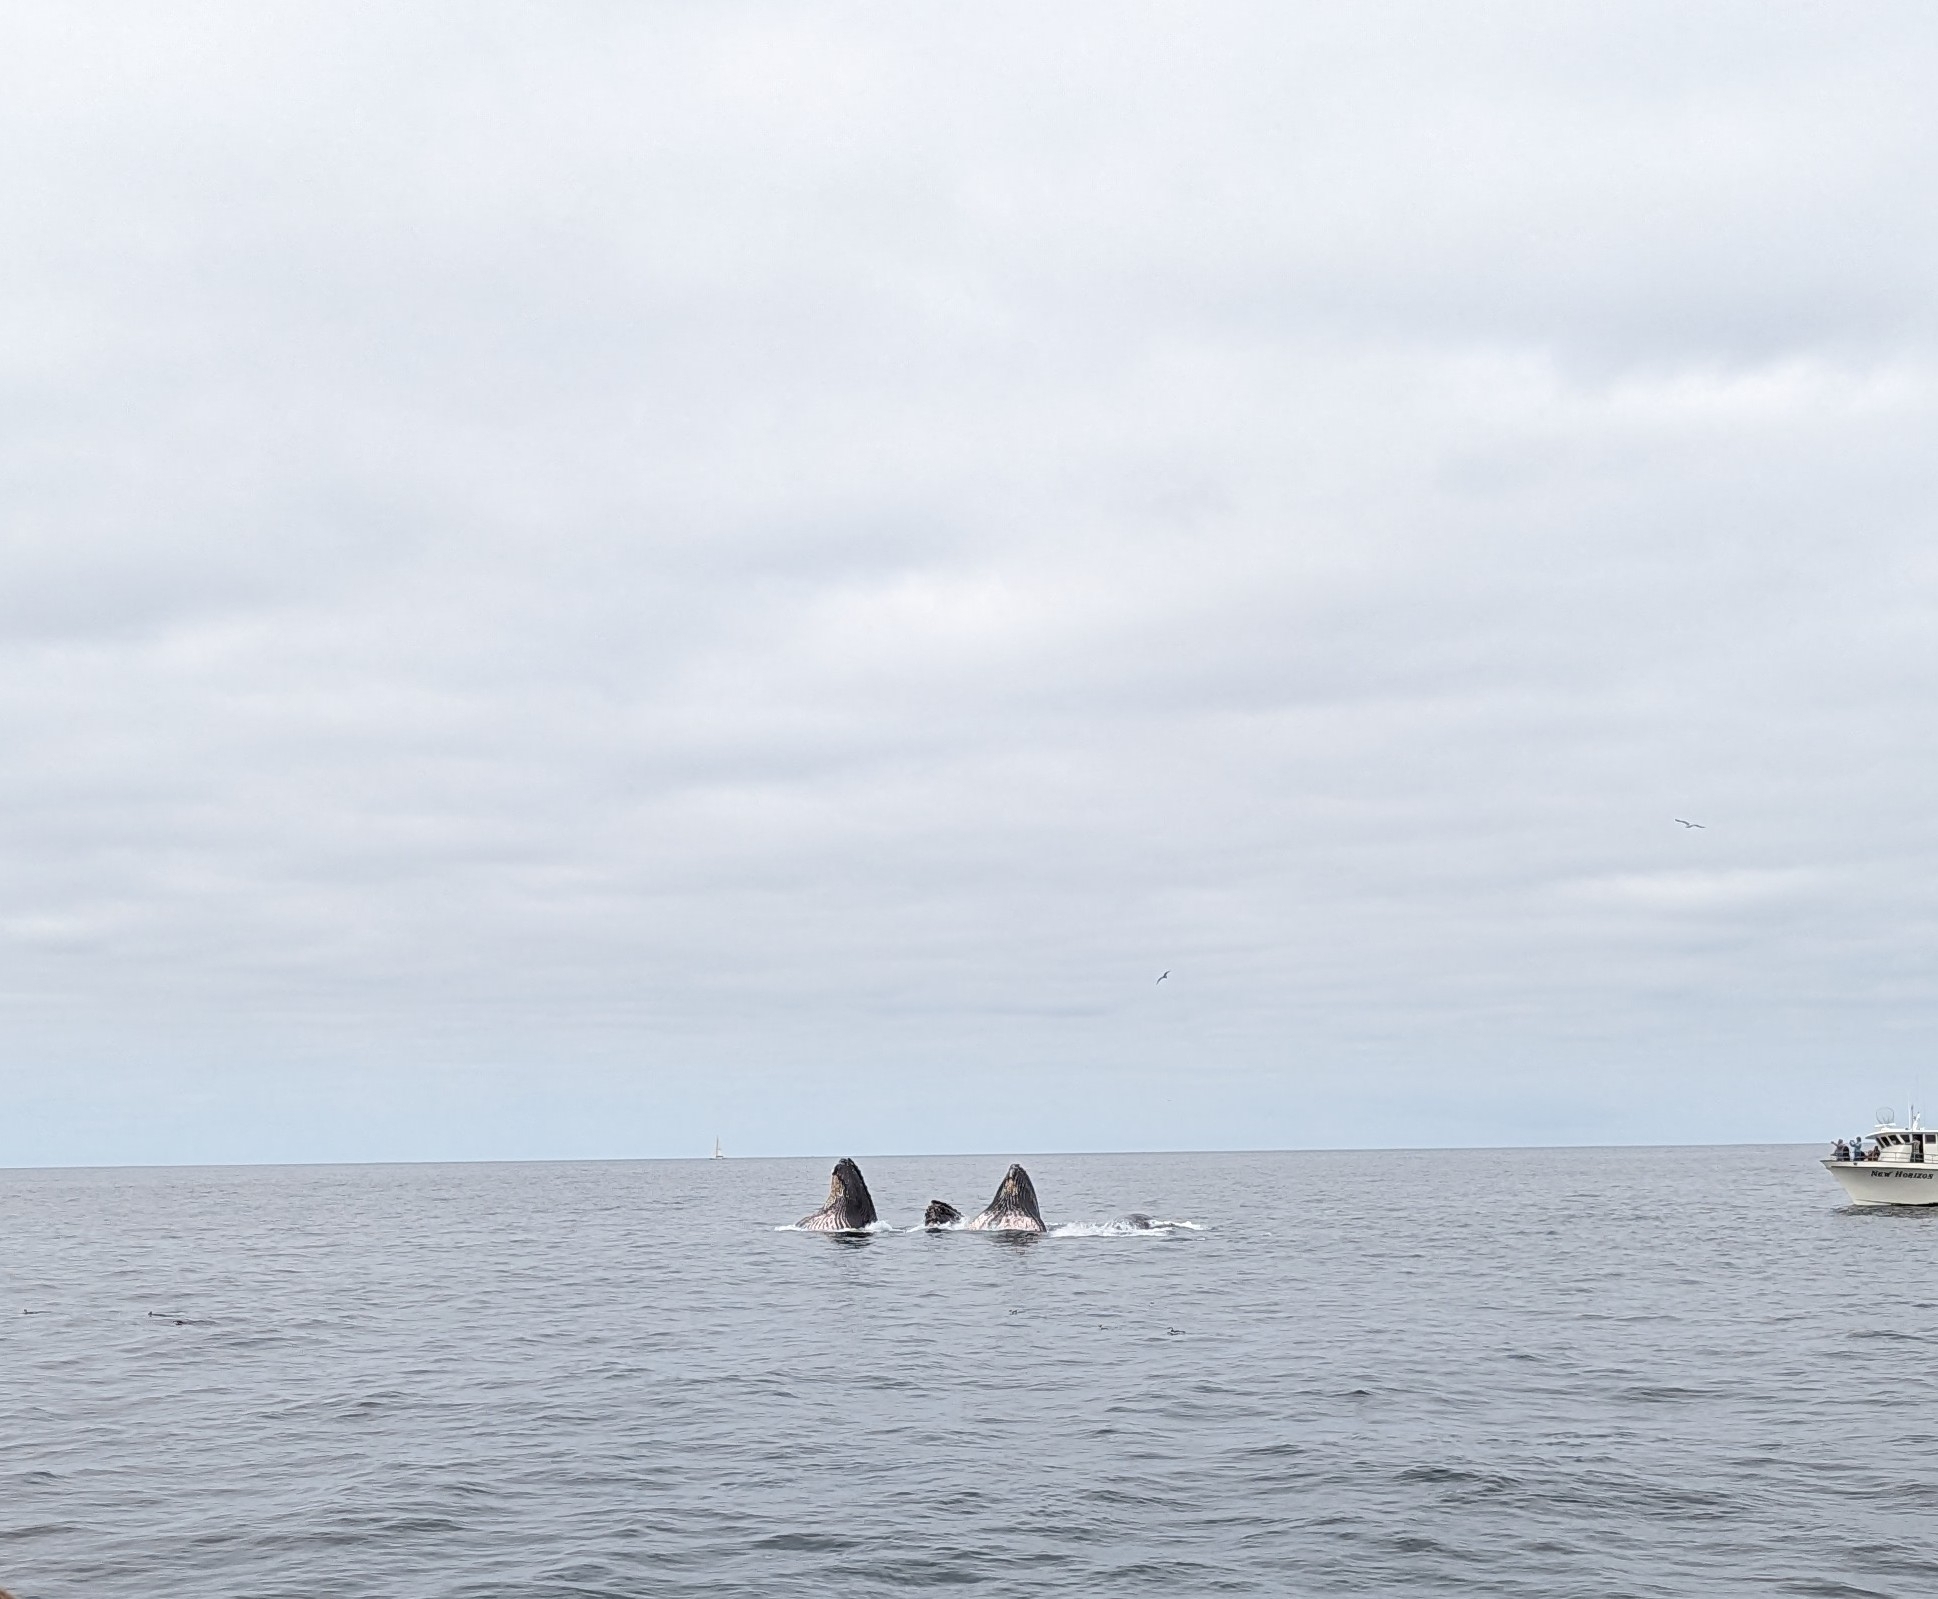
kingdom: Animalia
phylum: Chordata
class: Mammalia
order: Cetacea
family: Balaenopteridae
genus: Megaptera
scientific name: Megaptera novaeangliae
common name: Humpback whale
